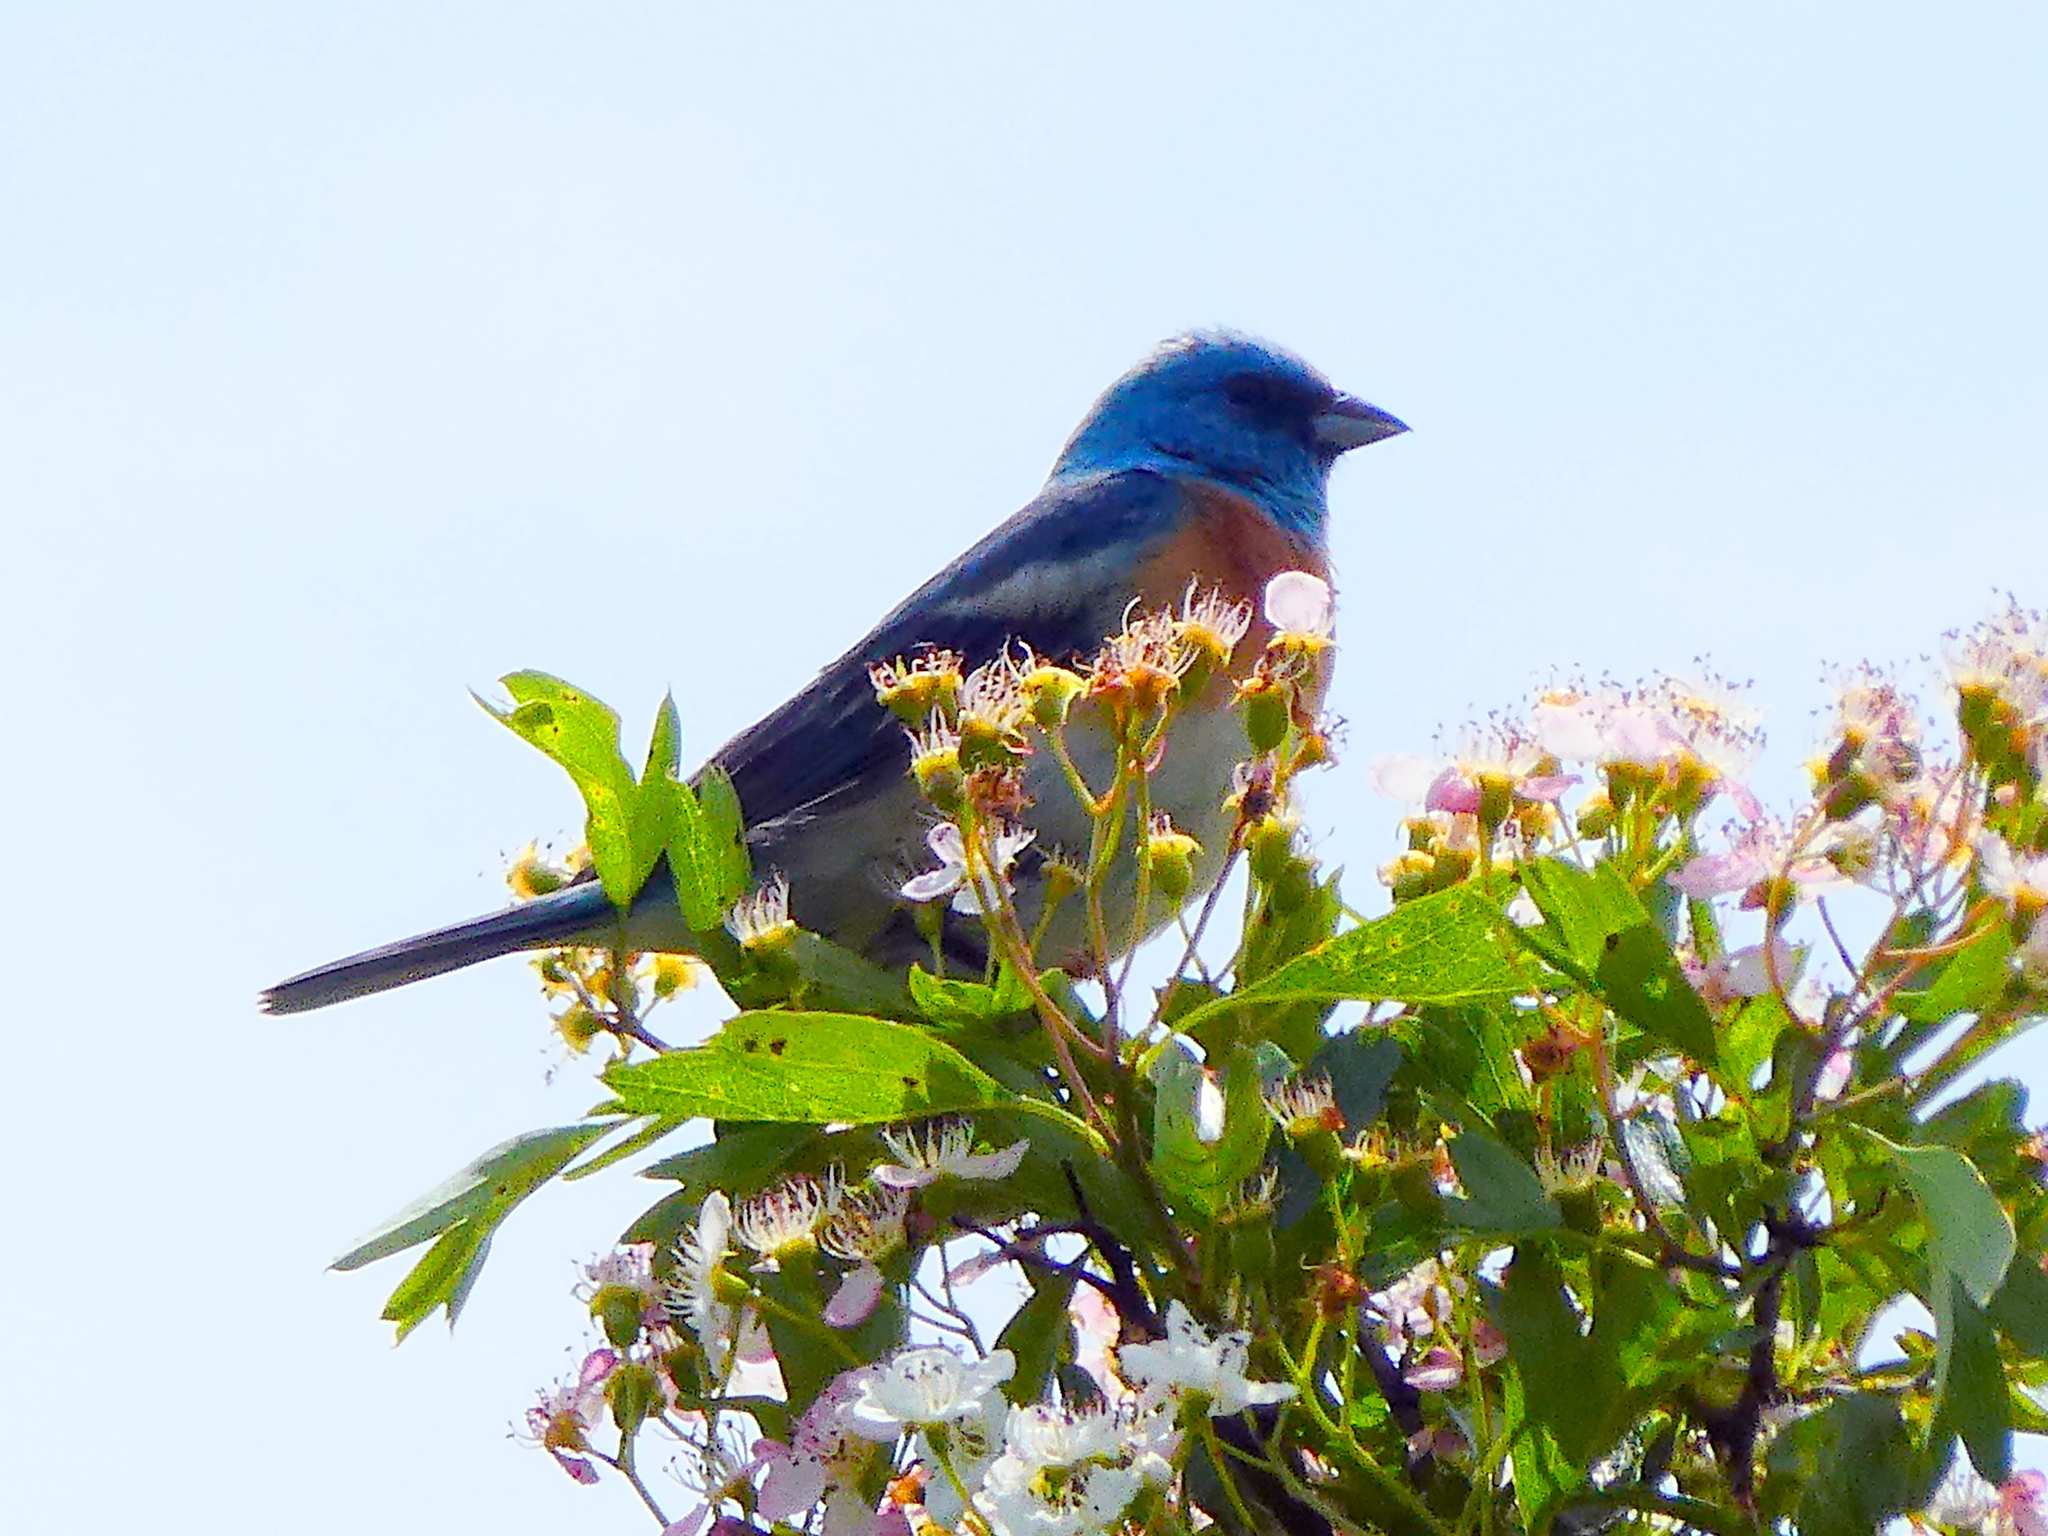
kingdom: Animalia
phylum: Chordata
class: Aves
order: Passeriformes
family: Cardinalidae
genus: Passerina
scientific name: Passerina amoena
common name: Lazuli bunting
